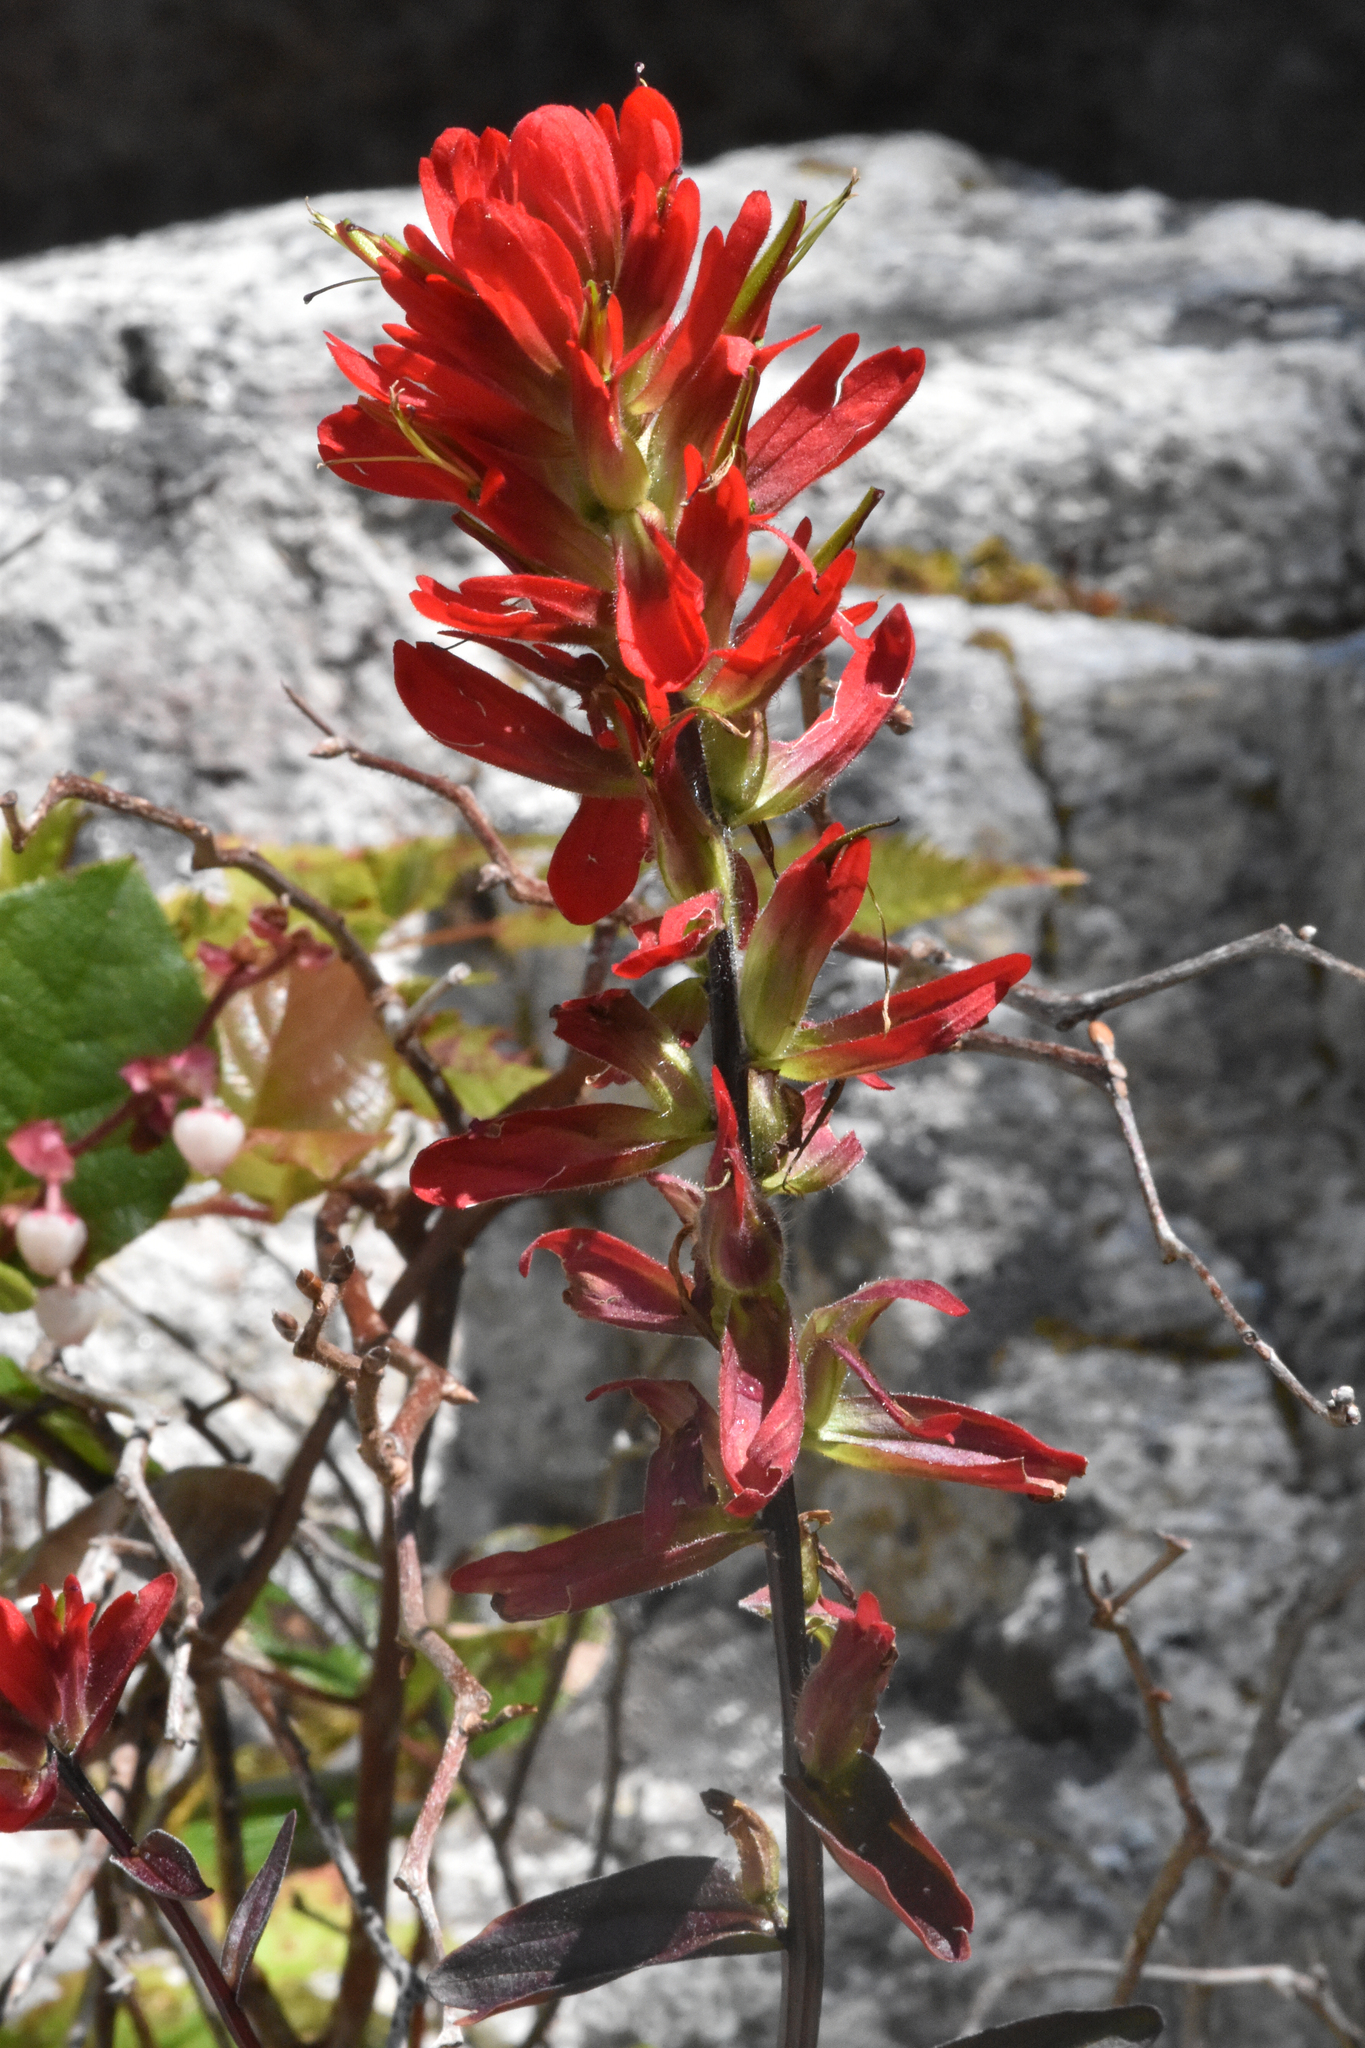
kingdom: Plantae
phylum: Tracheophyta
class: Magnoliopsida
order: Lamiales
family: Orobanchaceae
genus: Castilleja
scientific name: Castilleja miniata
